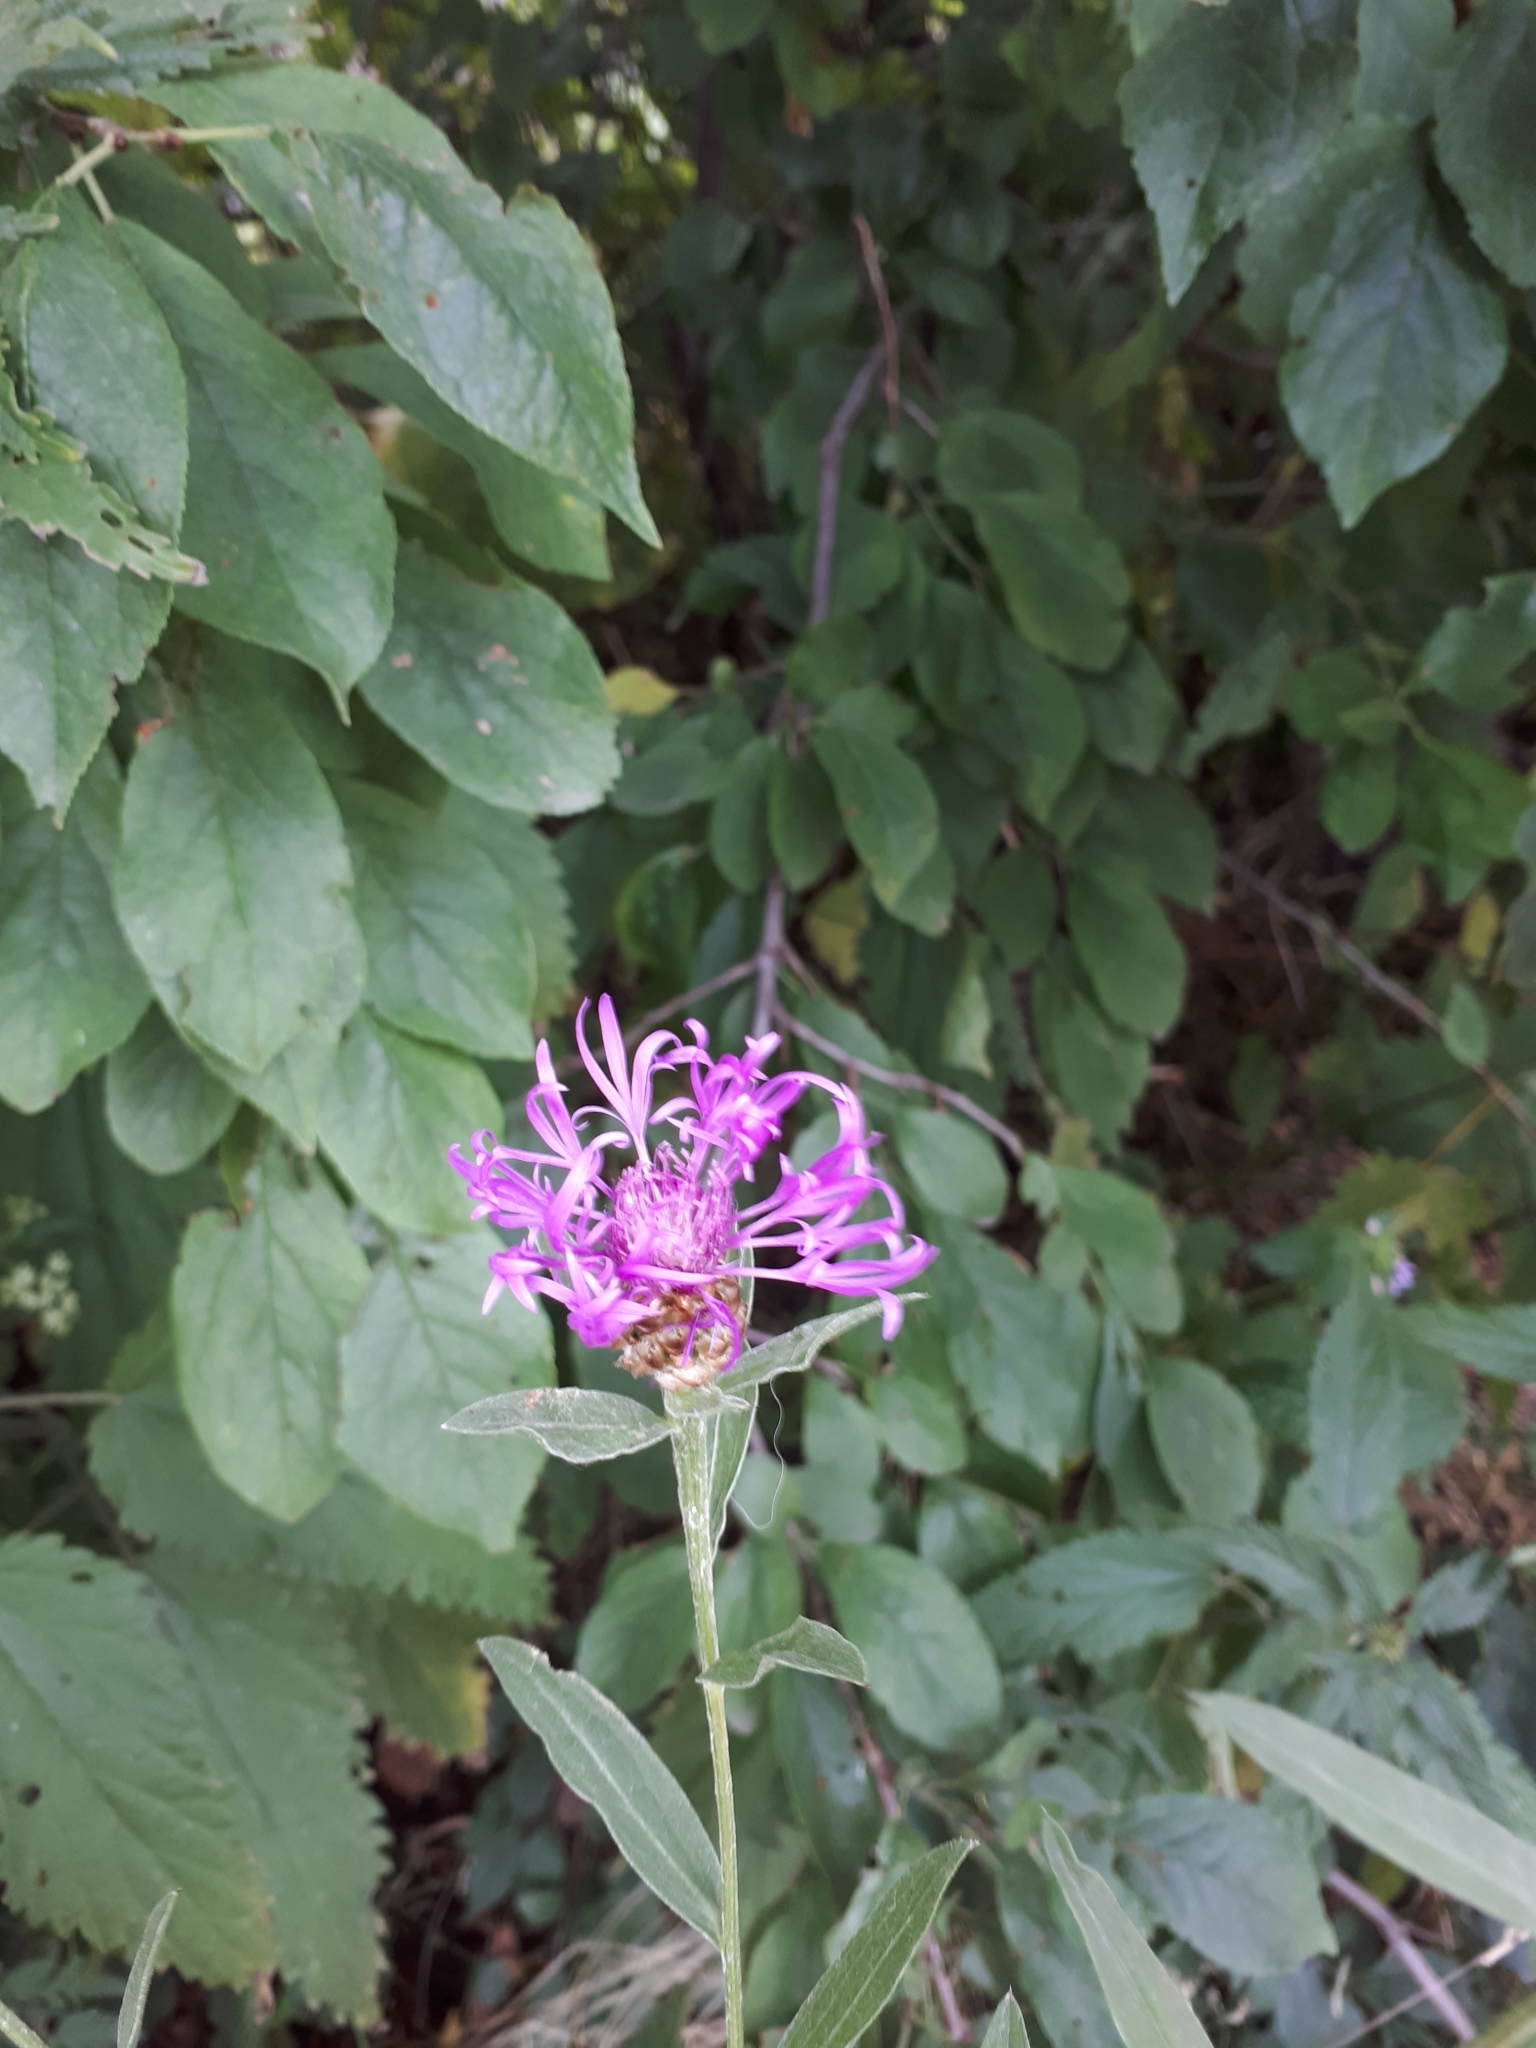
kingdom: Plantae
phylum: Tracheophyta
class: Magnoliopsida
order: Asterales
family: Asteraceae
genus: Centaurea
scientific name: Centaurea jacea
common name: Brown knapweed
